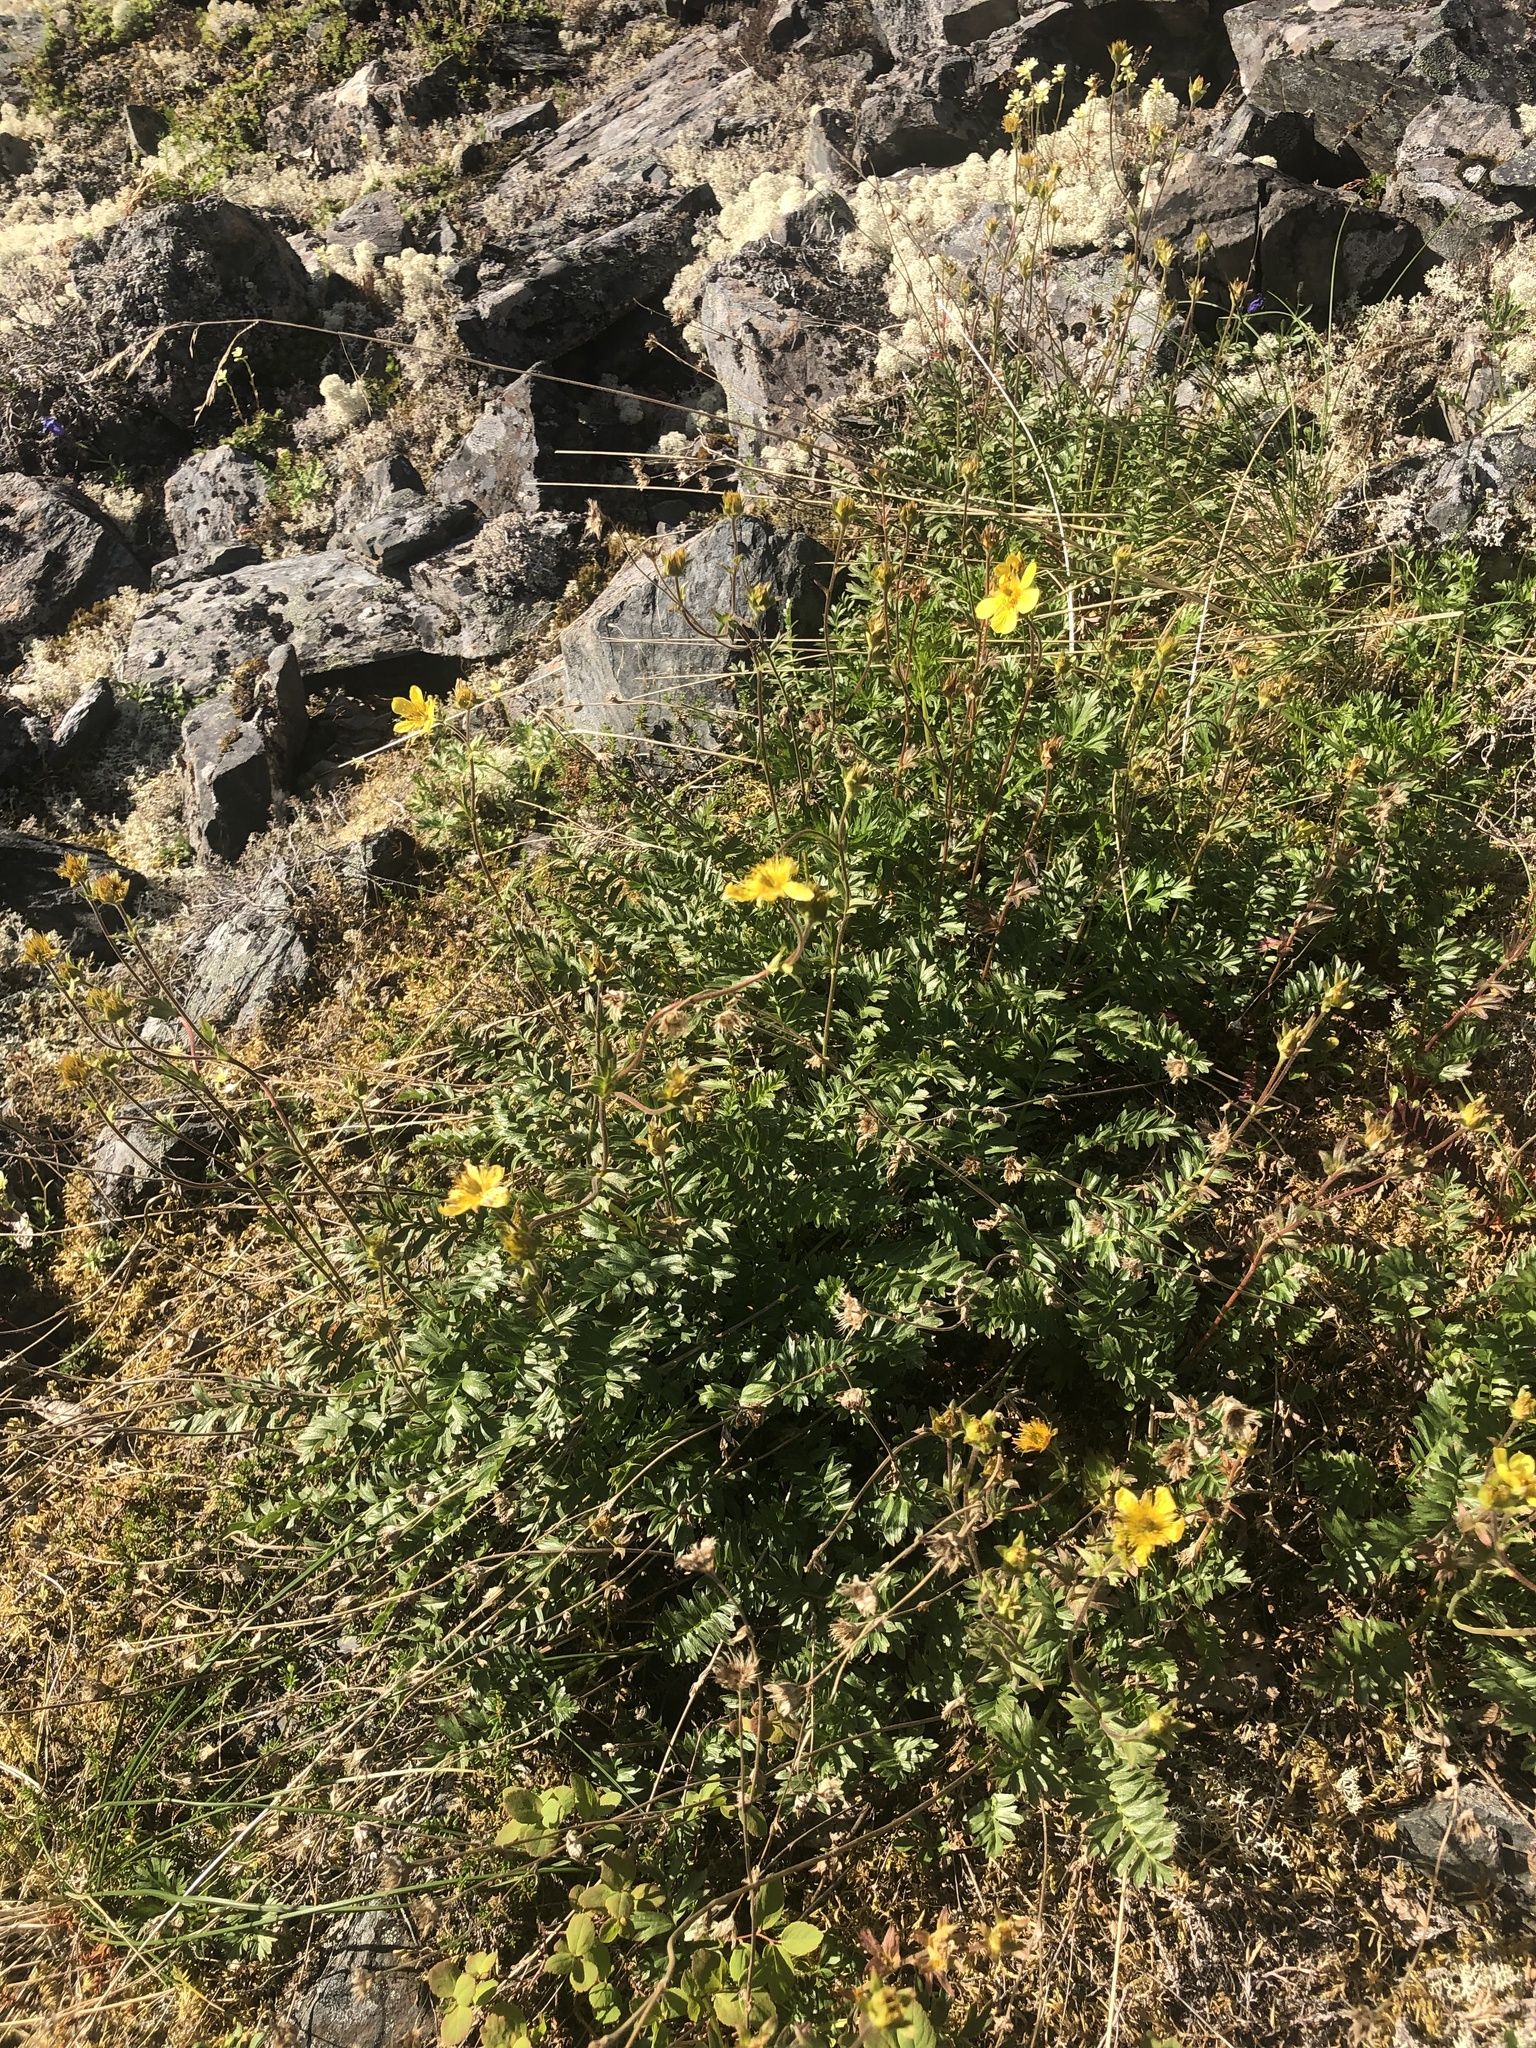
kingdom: Plantae
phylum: Tracheophyta
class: Magnoliopsida
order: Rosales
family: Rosaceae
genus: Geum
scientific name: Geum rossii
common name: Alpine avens
